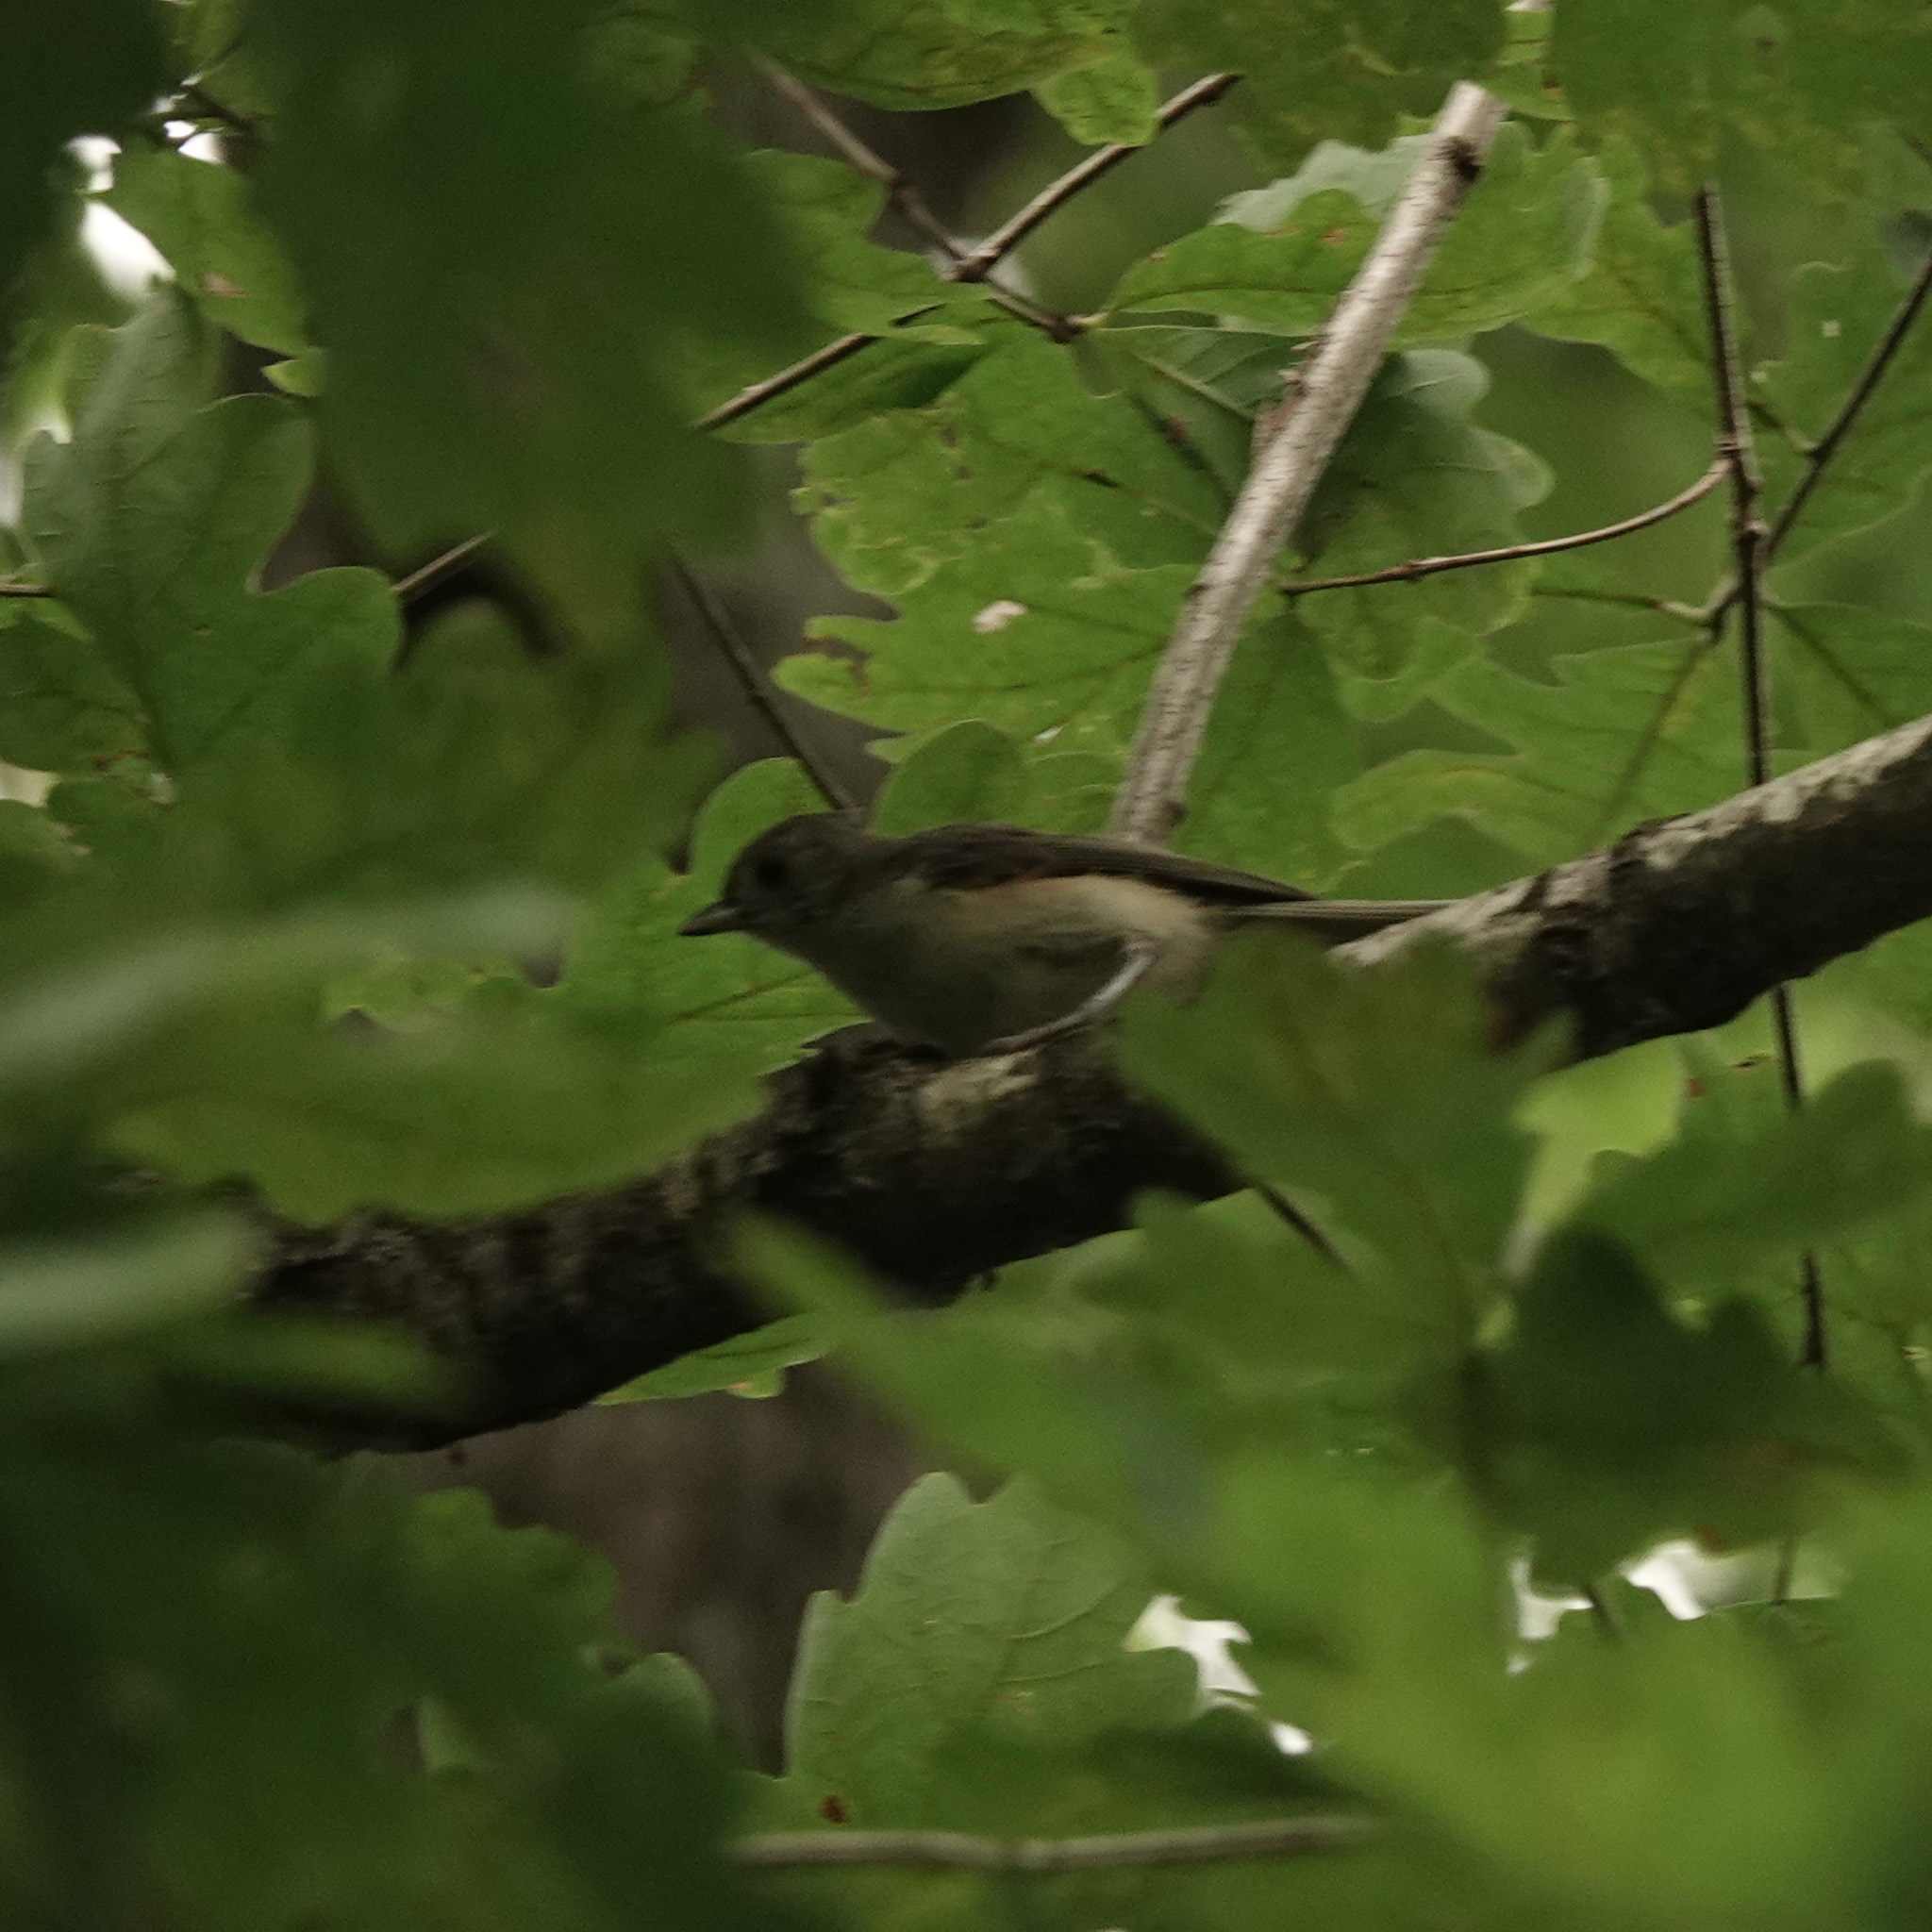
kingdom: Animalia
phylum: Chordata
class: Aves
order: Passeriformes
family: Paridae
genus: Baeolophus
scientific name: Baeolophus bicolor
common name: Tufted titmouse
